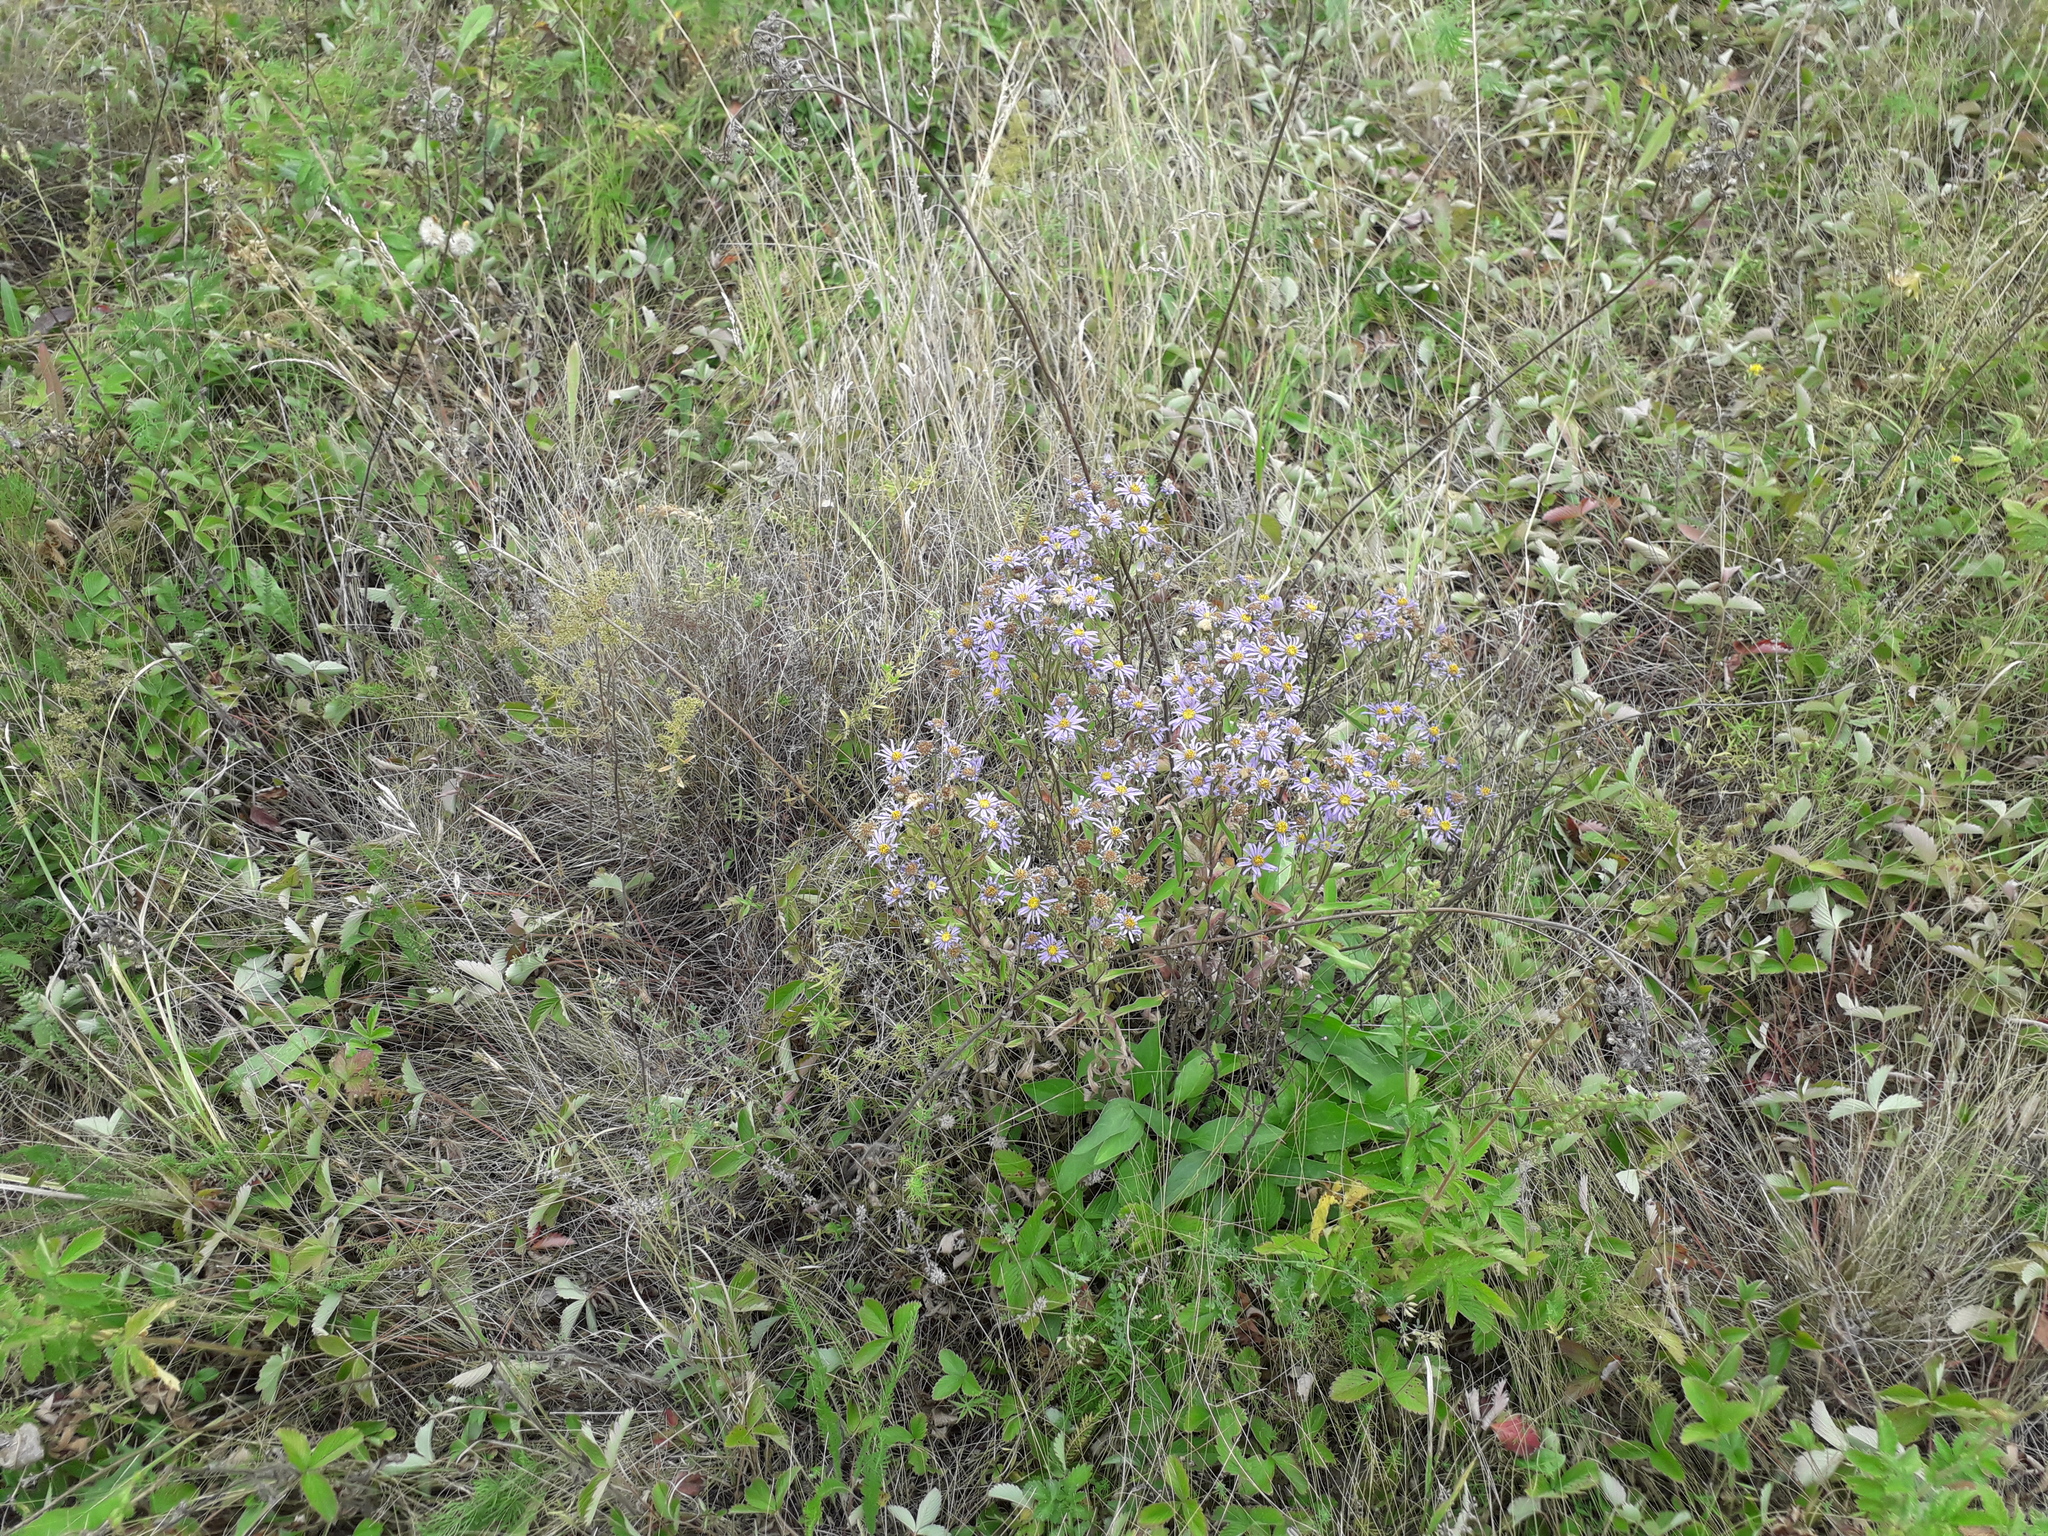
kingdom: Plantae
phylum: Tracheophyta
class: Magnoliopsida
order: Asterales
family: Asteraceae
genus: Aster
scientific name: Aster amellus
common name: European michaelmas daisy
